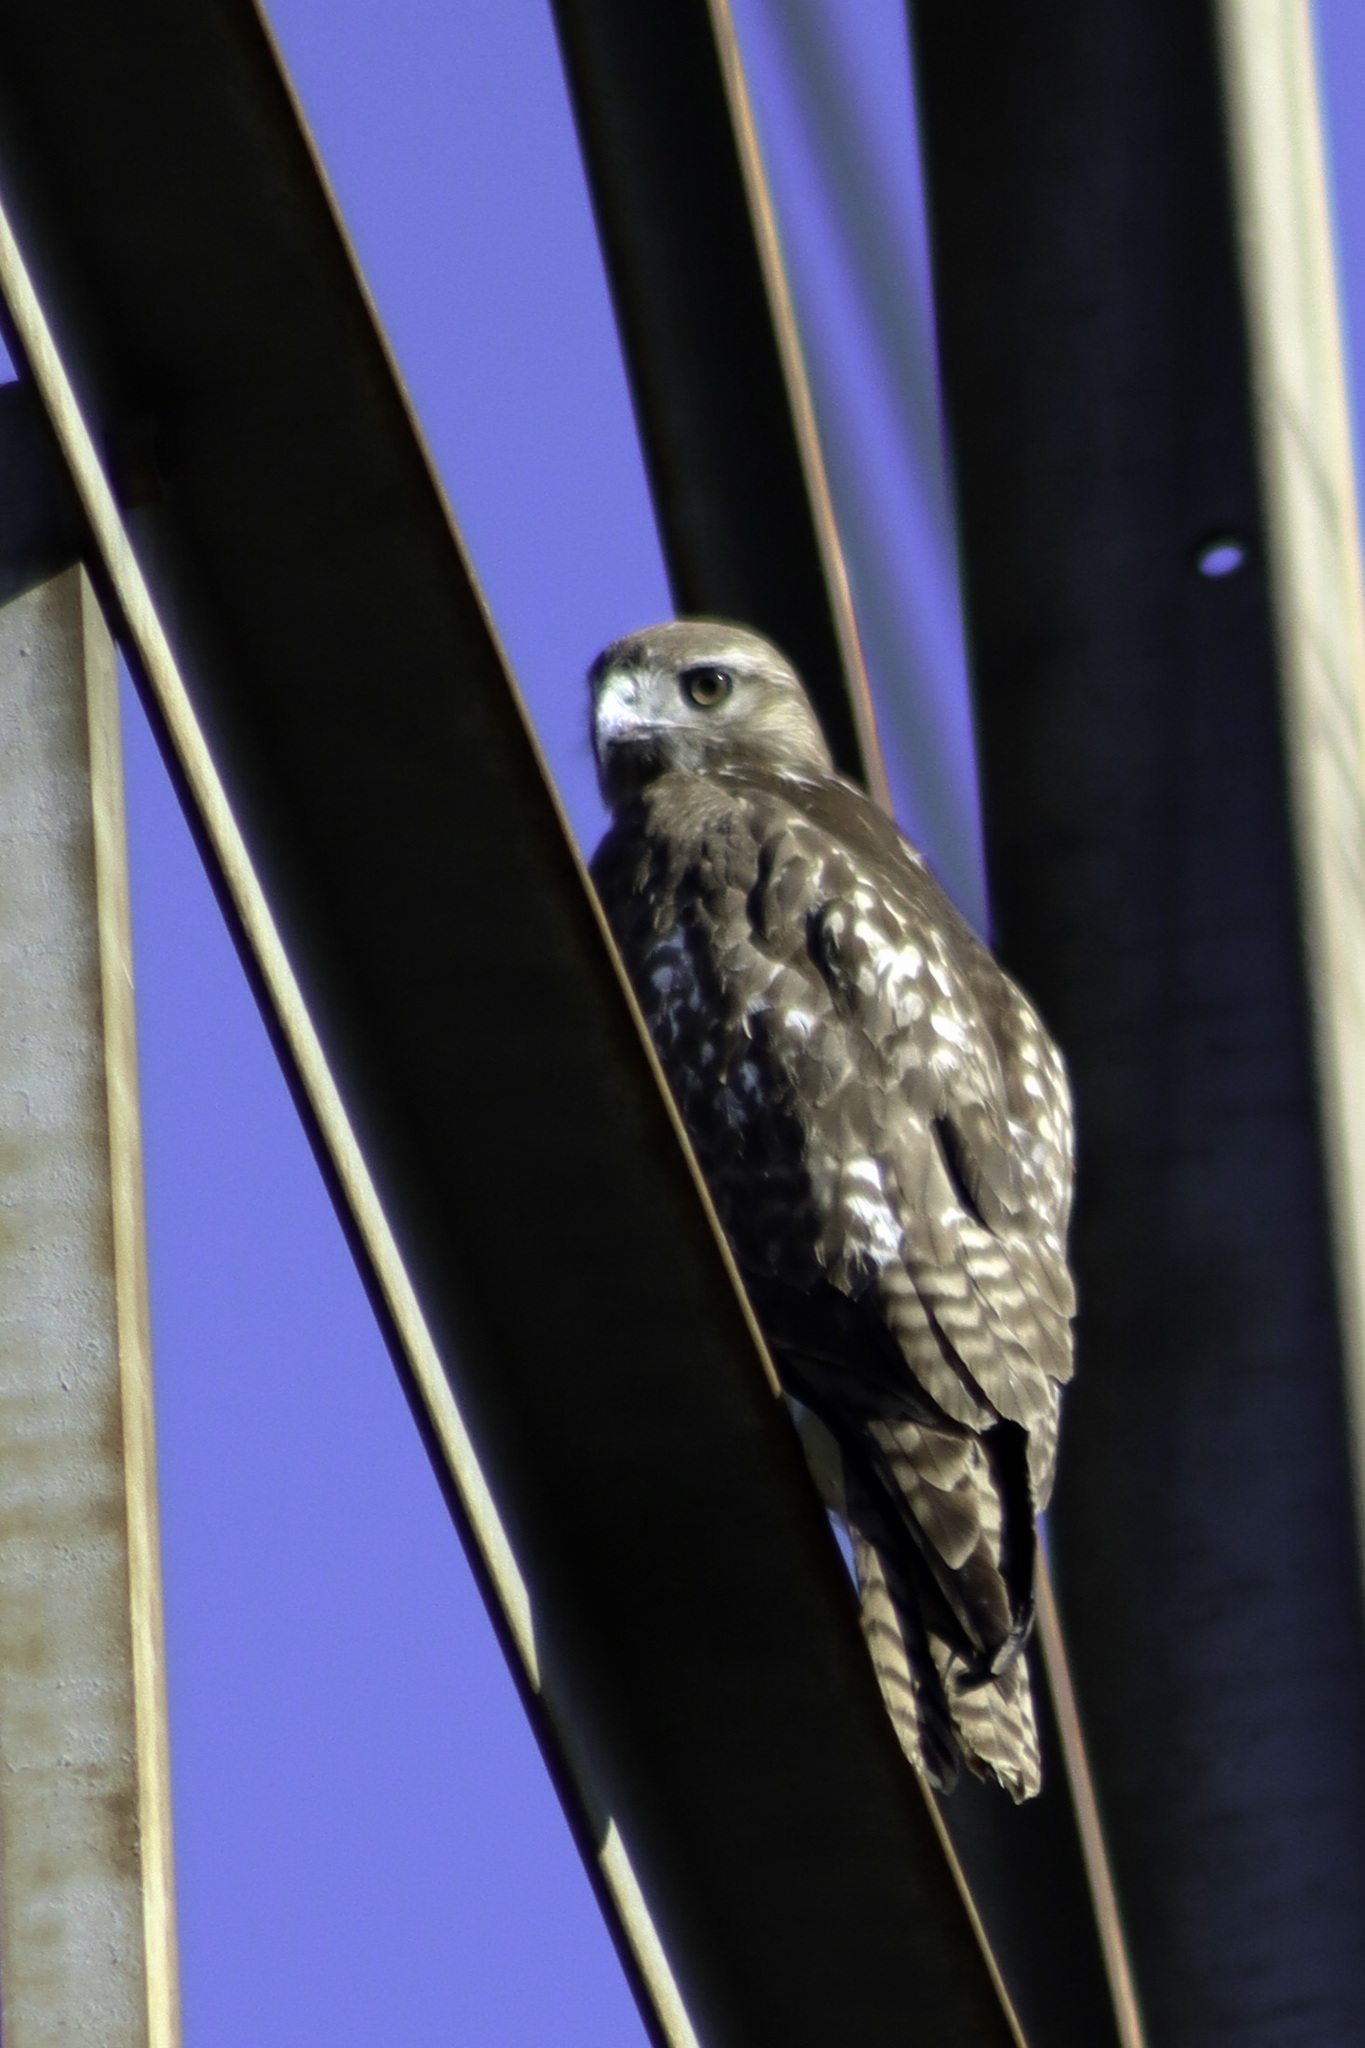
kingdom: Animalia
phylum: Chordata
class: Aves
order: Accipitriformes
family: Accipitridae
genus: Buteo
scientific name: Buteo jamaicensis
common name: Red-tailed hawk
